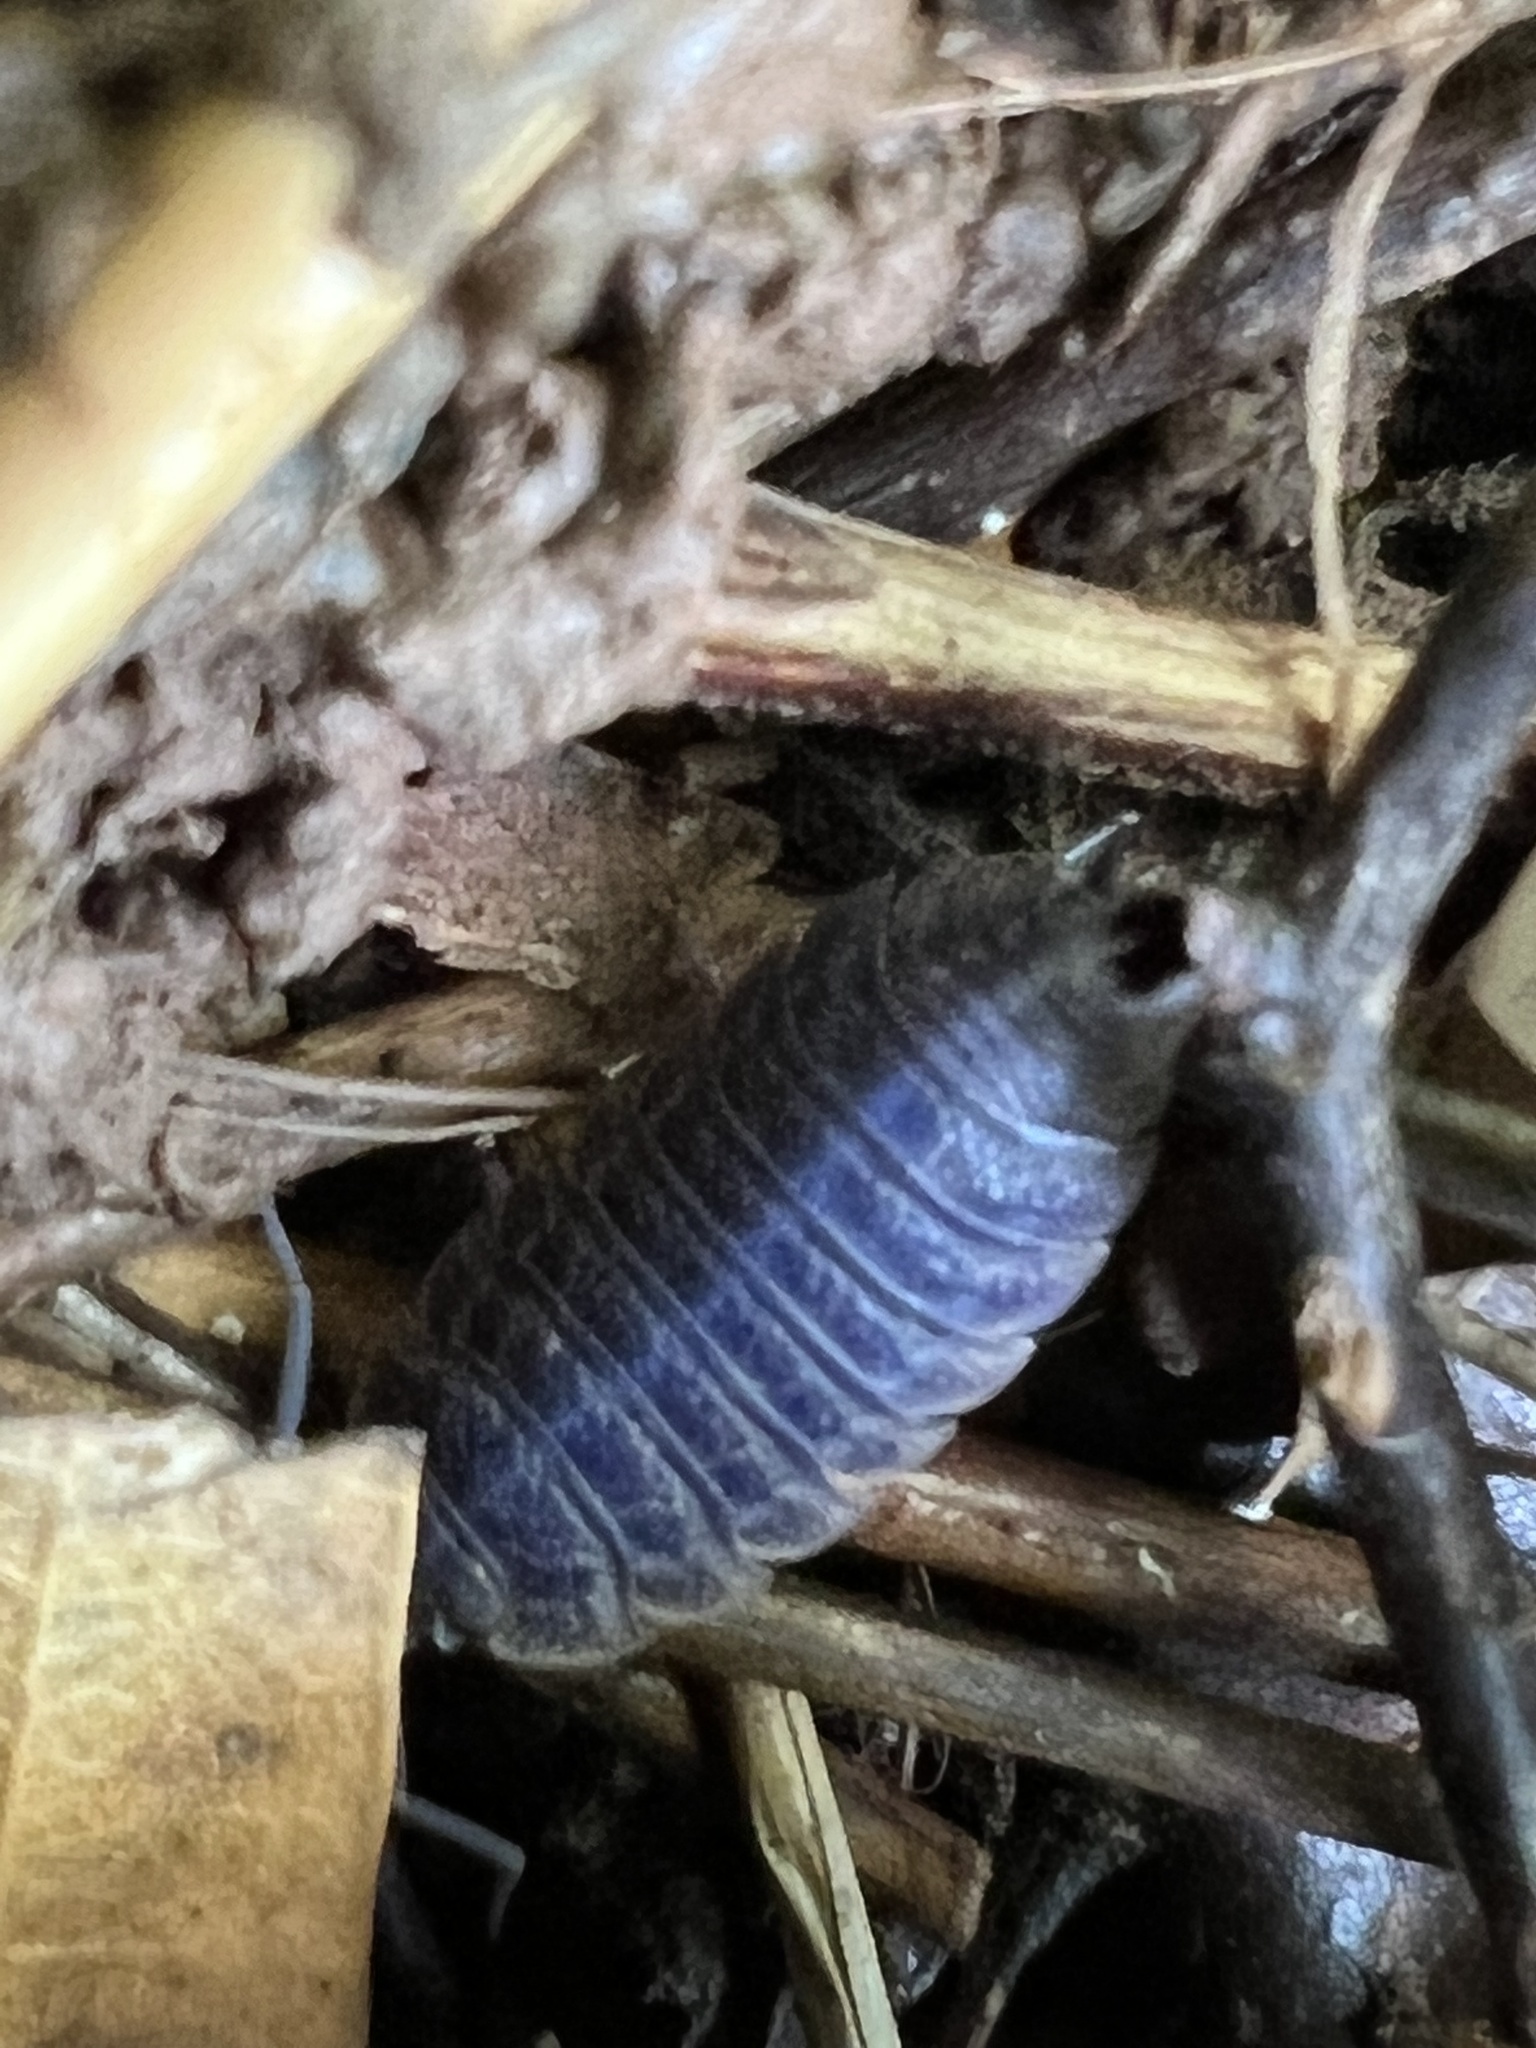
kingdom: Viruses
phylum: Nucleocytoviricota
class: Megaviricetes
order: Pimascovirales
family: Iridoviridae
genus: Iridovirus
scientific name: Iridovirus Invertebrate iridescent virus 31
